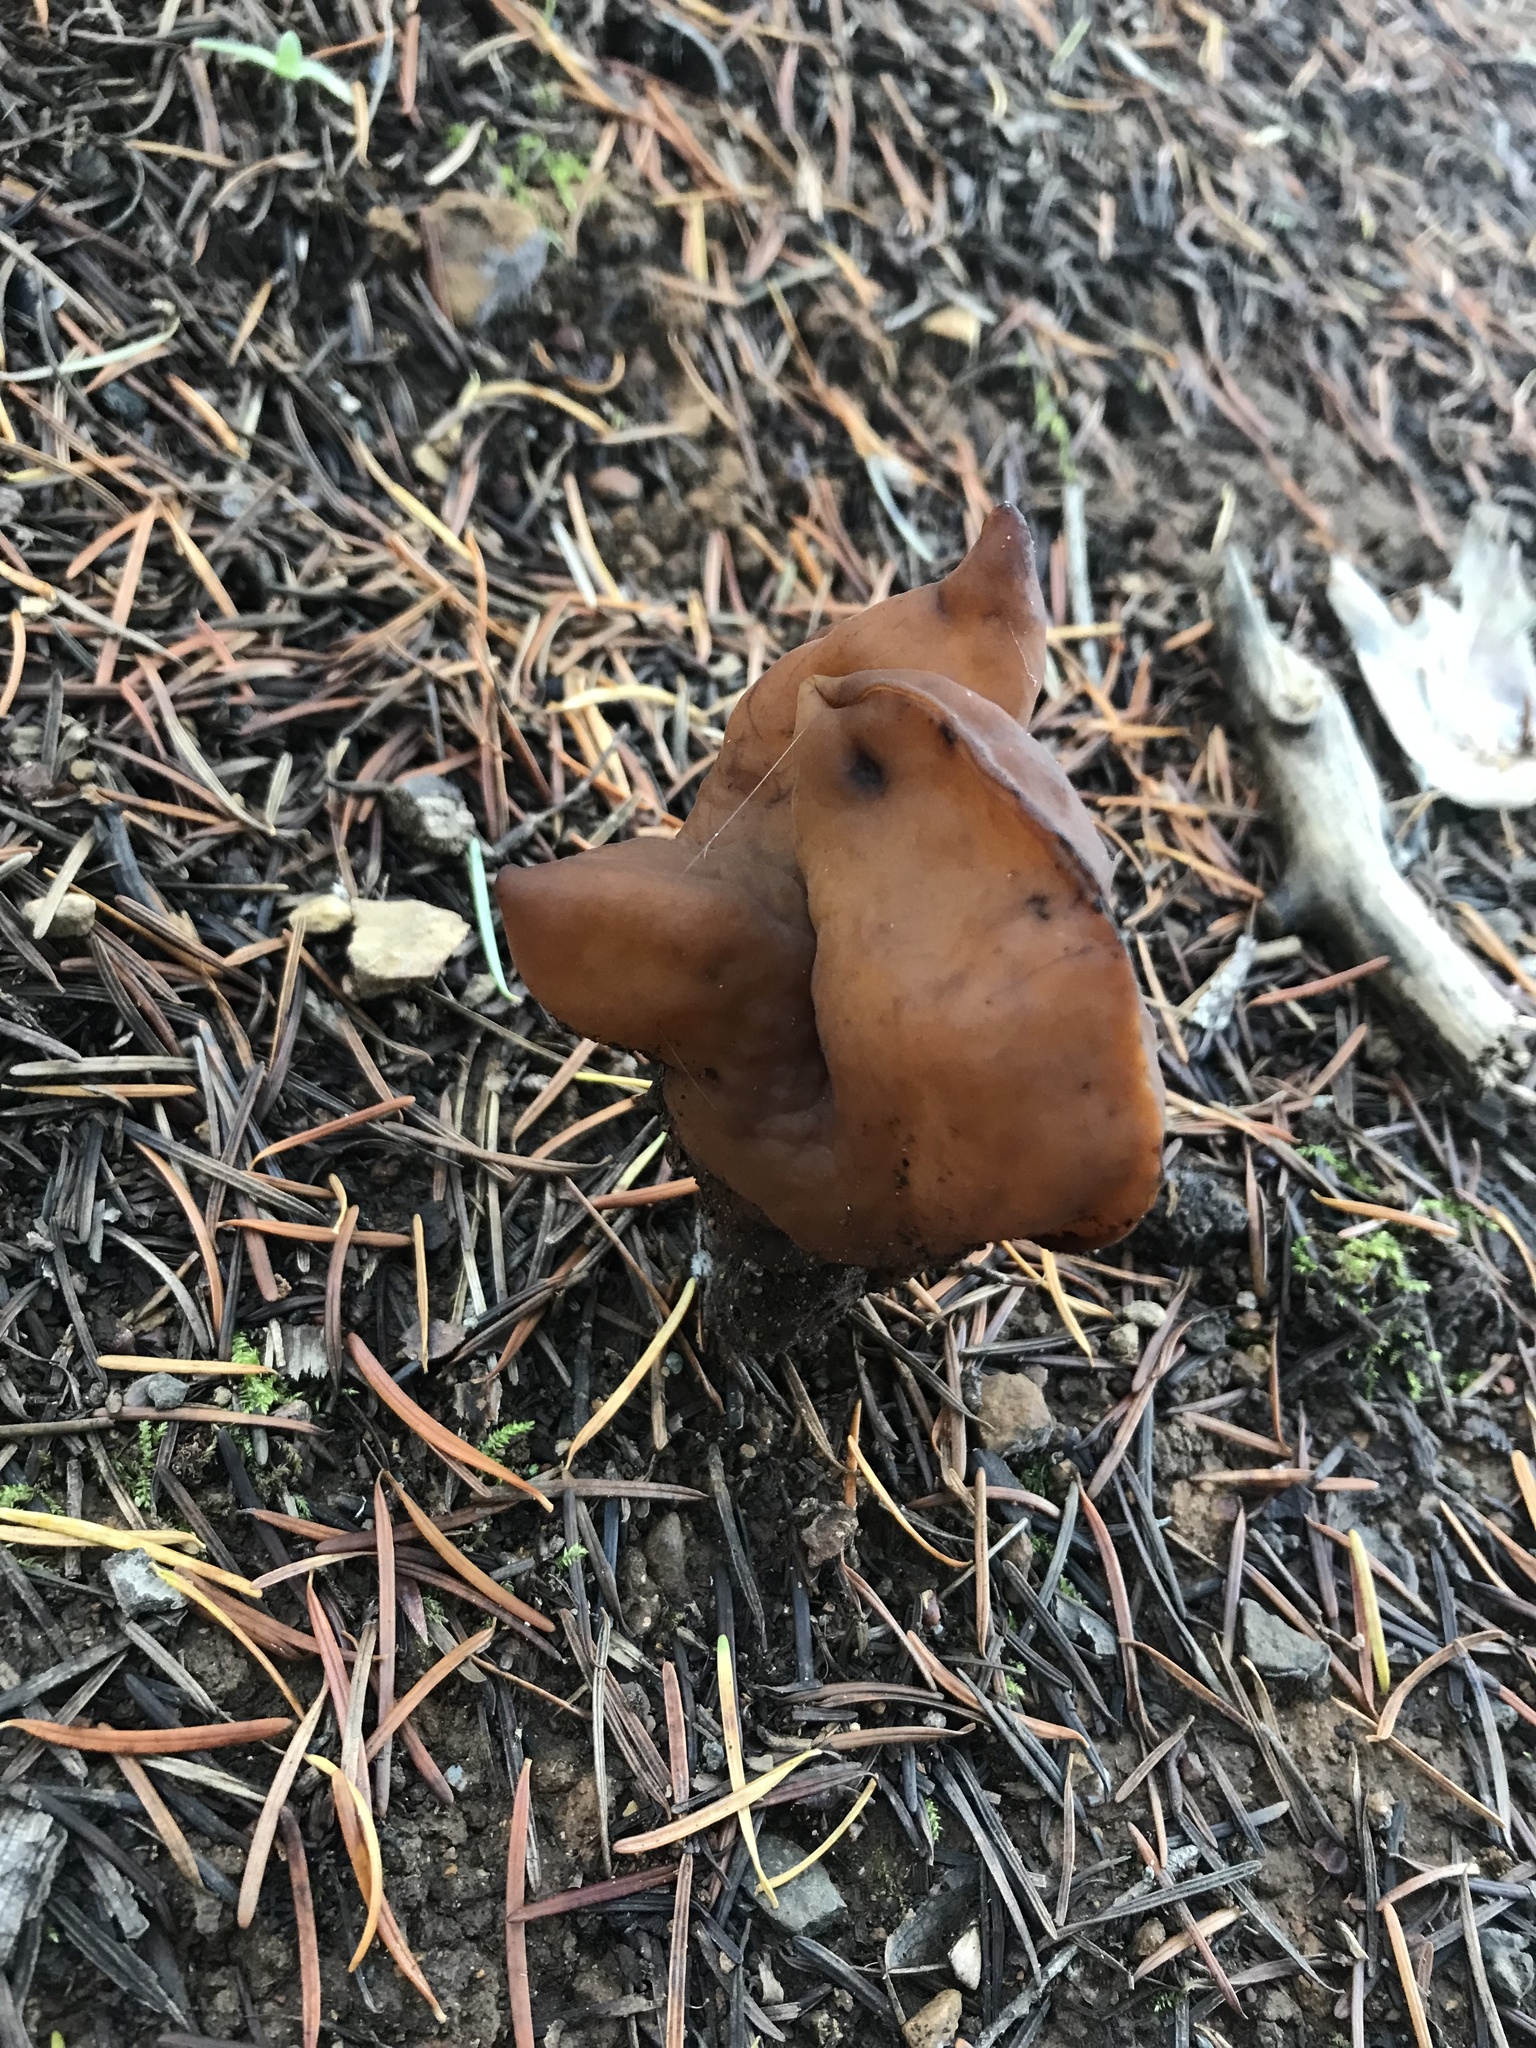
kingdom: Fungi
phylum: Ascomycota
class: Pezizomycetes
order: Pezizales
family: Discinaceae
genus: Gyromitra
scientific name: Gyromitra infula
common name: Pouched false morel
